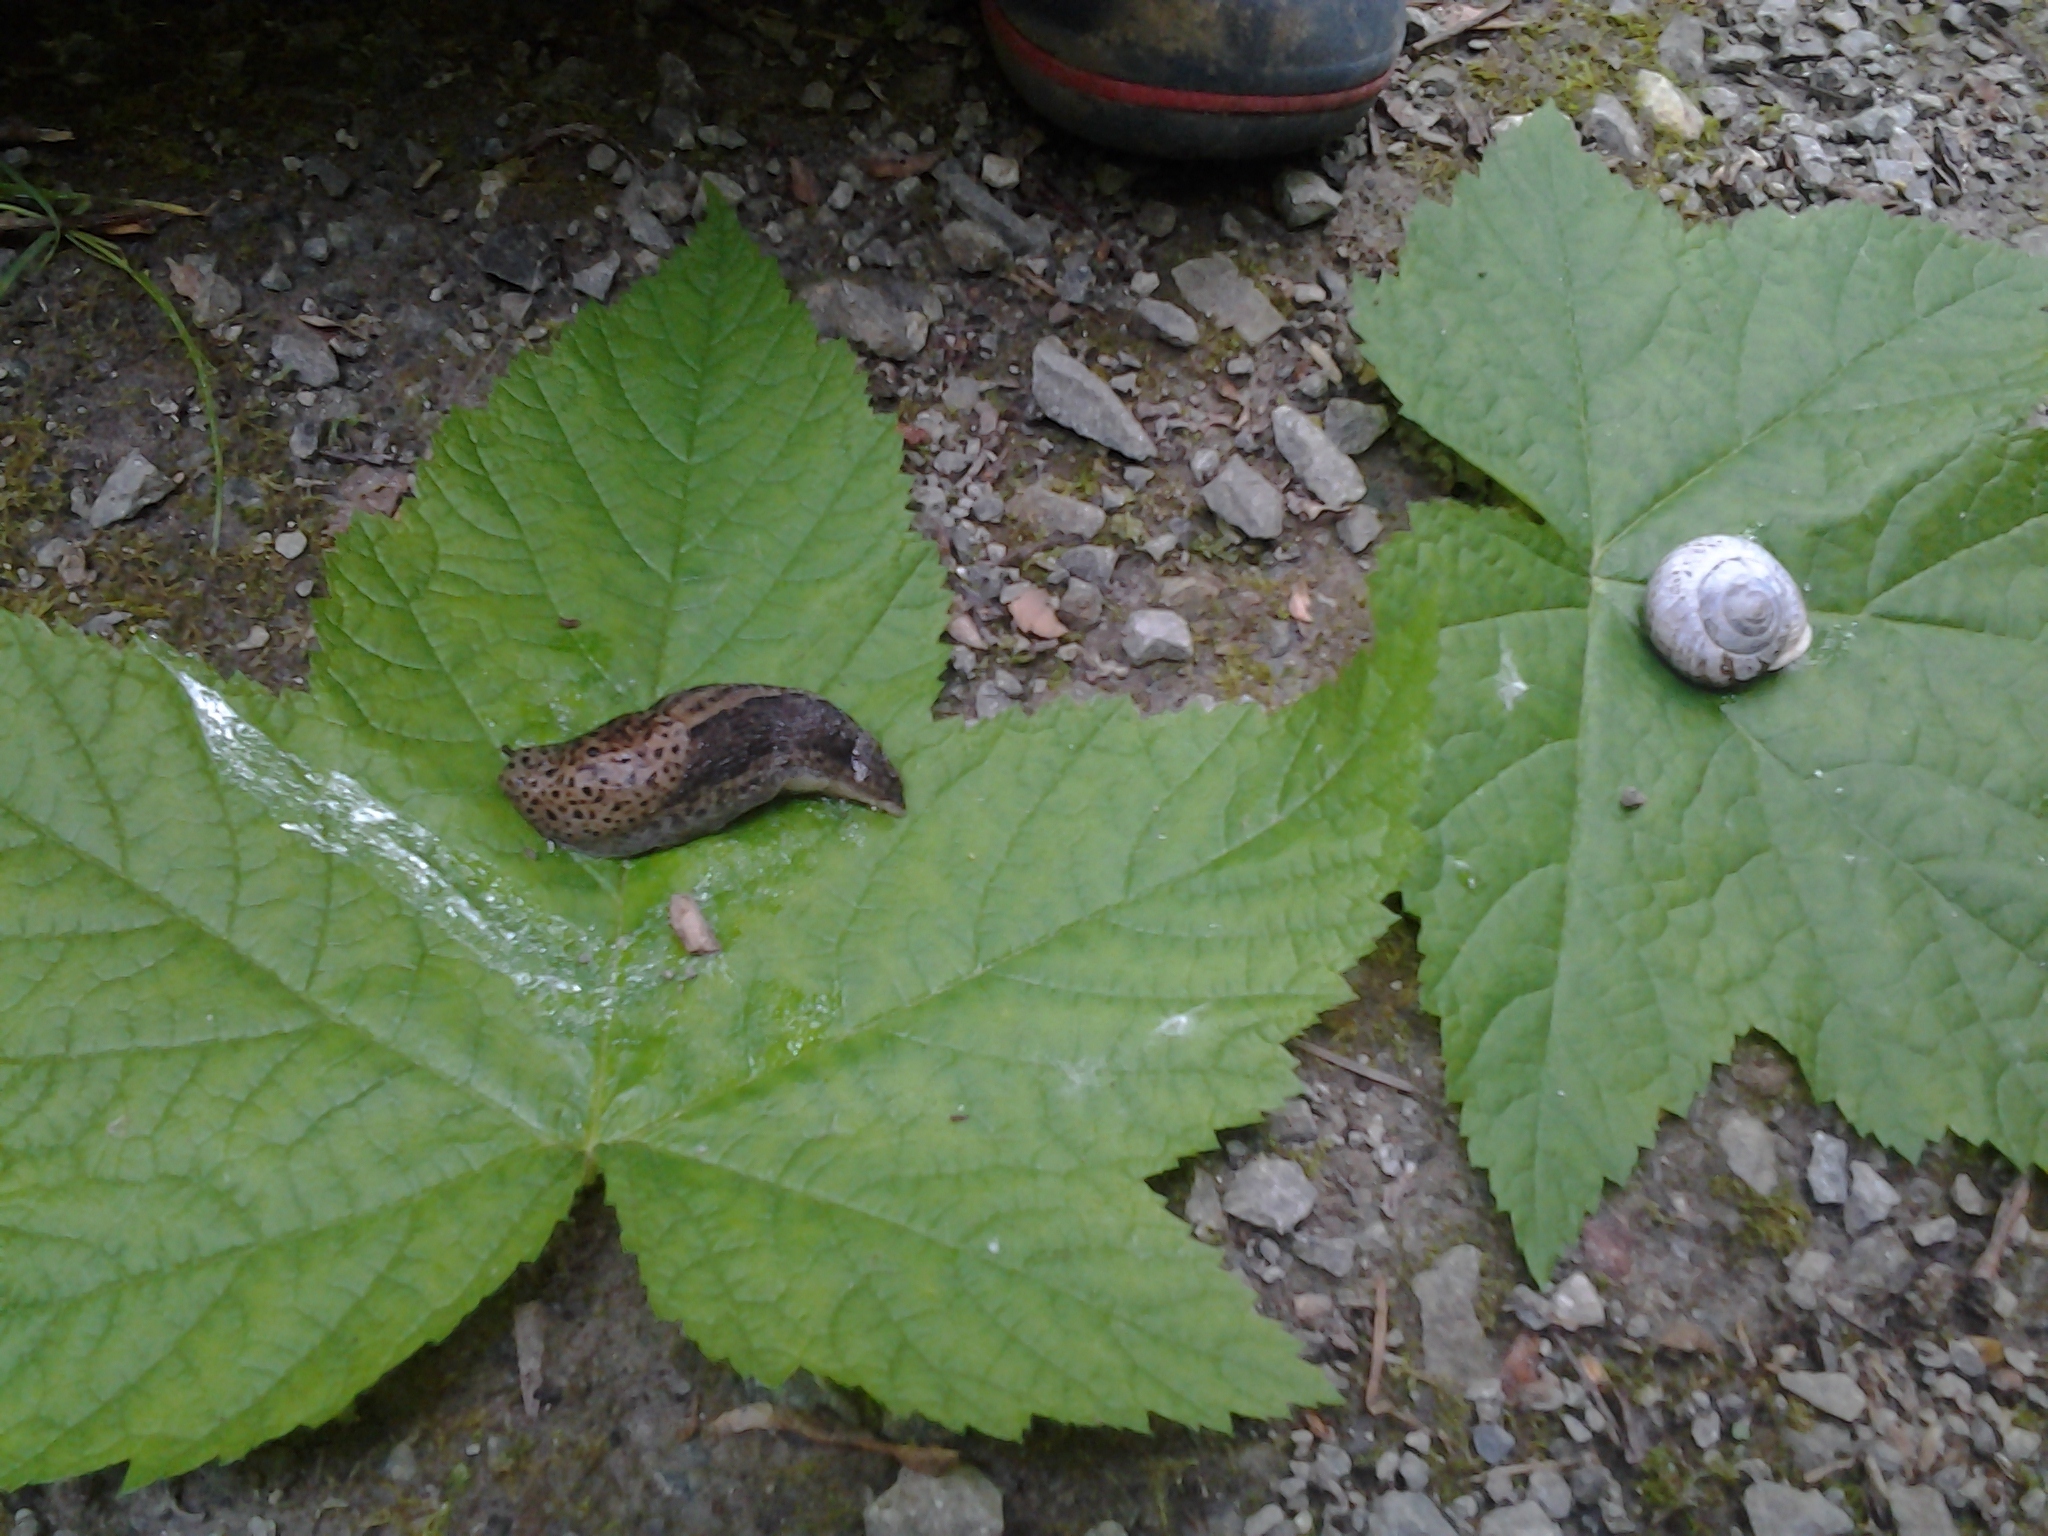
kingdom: Animalia
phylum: Mollusca
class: Gastropoda
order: Stylommatophora
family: Limacidae
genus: Limax
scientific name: Limax maximus
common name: Great grey slug
